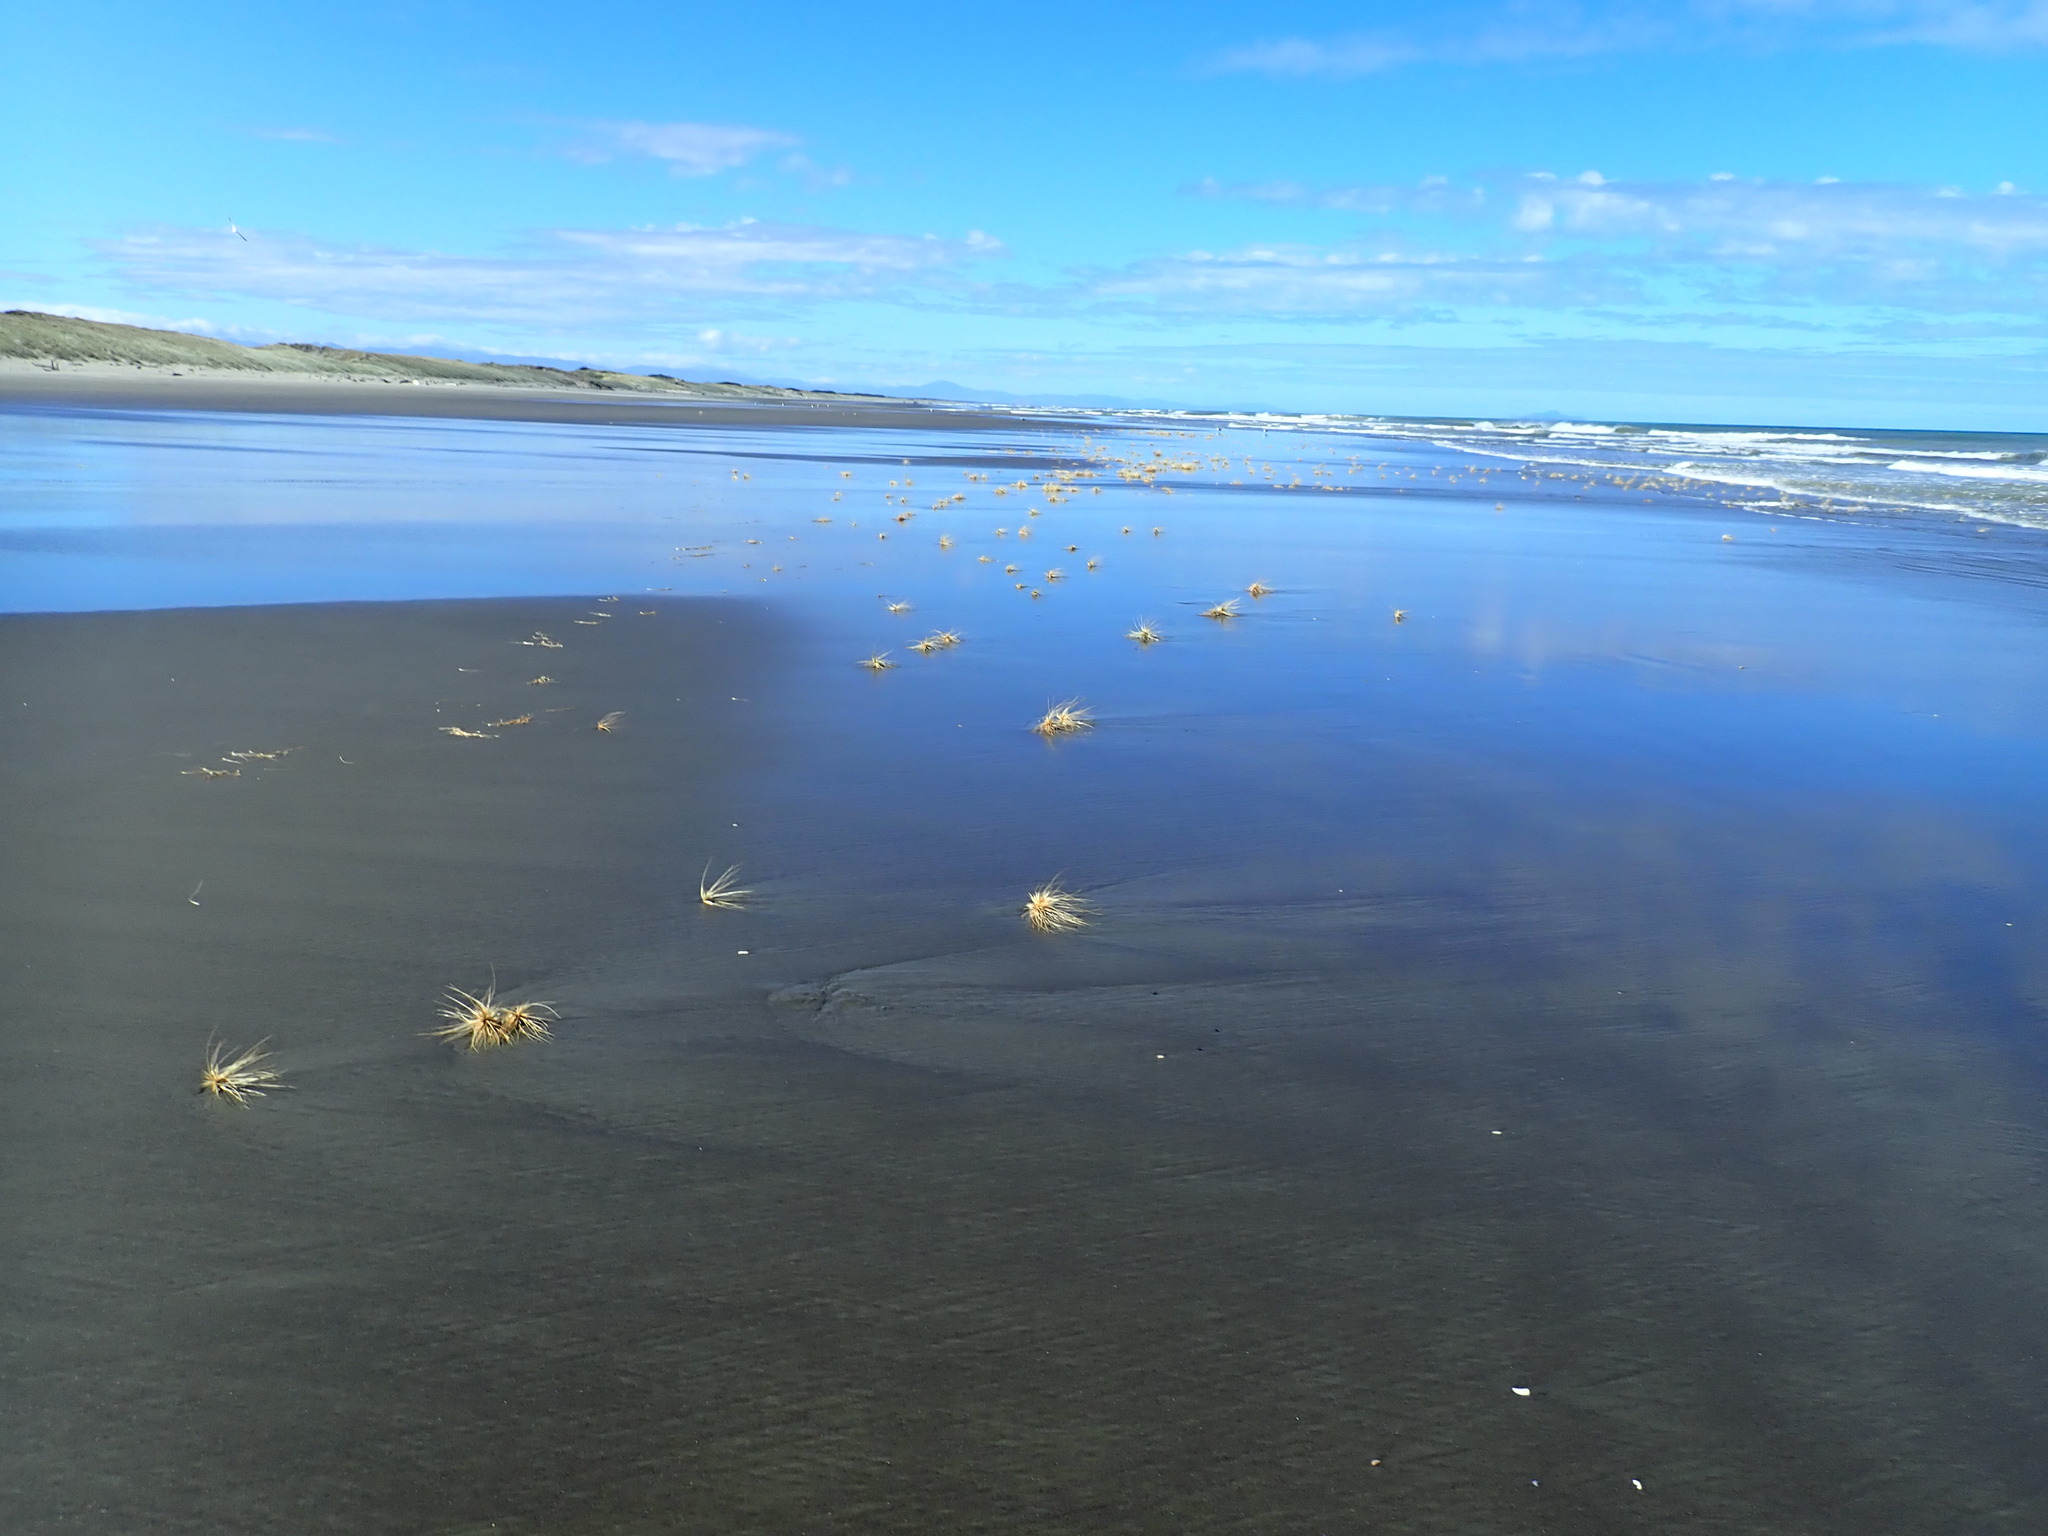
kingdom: Plantae
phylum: Tracheophyta
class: Liliopsida
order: Poales
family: Poaceae
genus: Spinifex
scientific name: Spinifex sericeus
